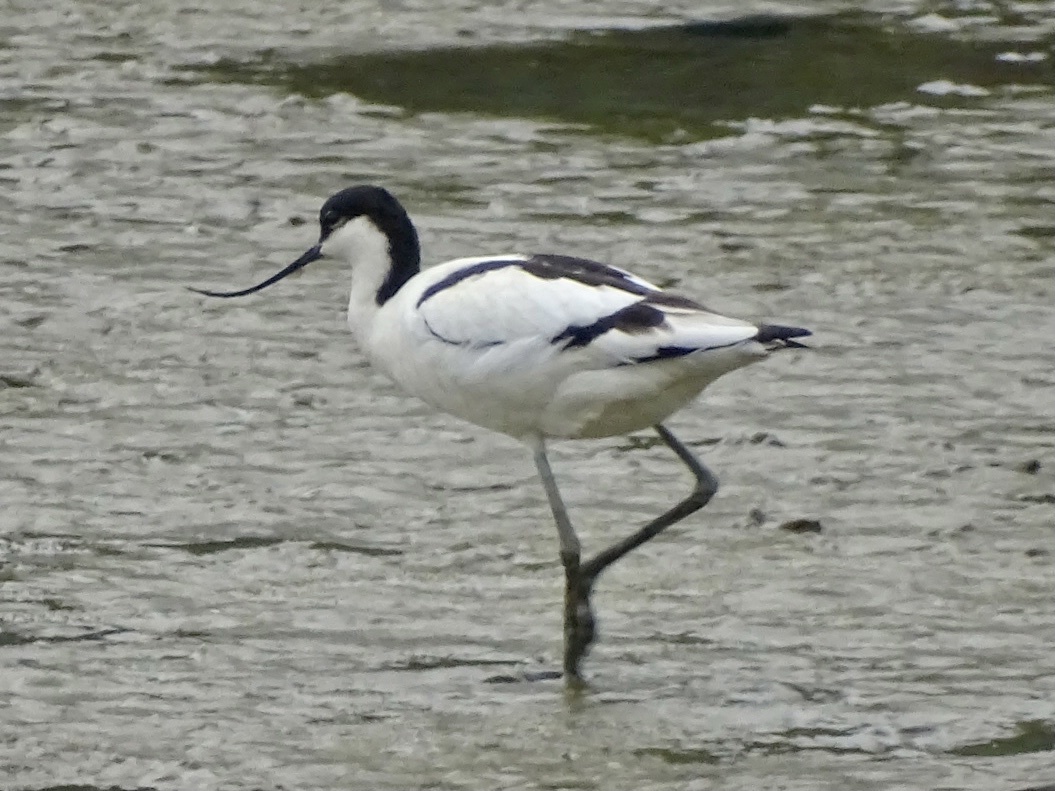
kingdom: Animalia
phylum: Chordata
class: Aves
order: Charadriiformes
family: Recurvirostridae
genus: Recurvirostra
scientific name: Recurvirostra avosetta
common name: Pied avocet
